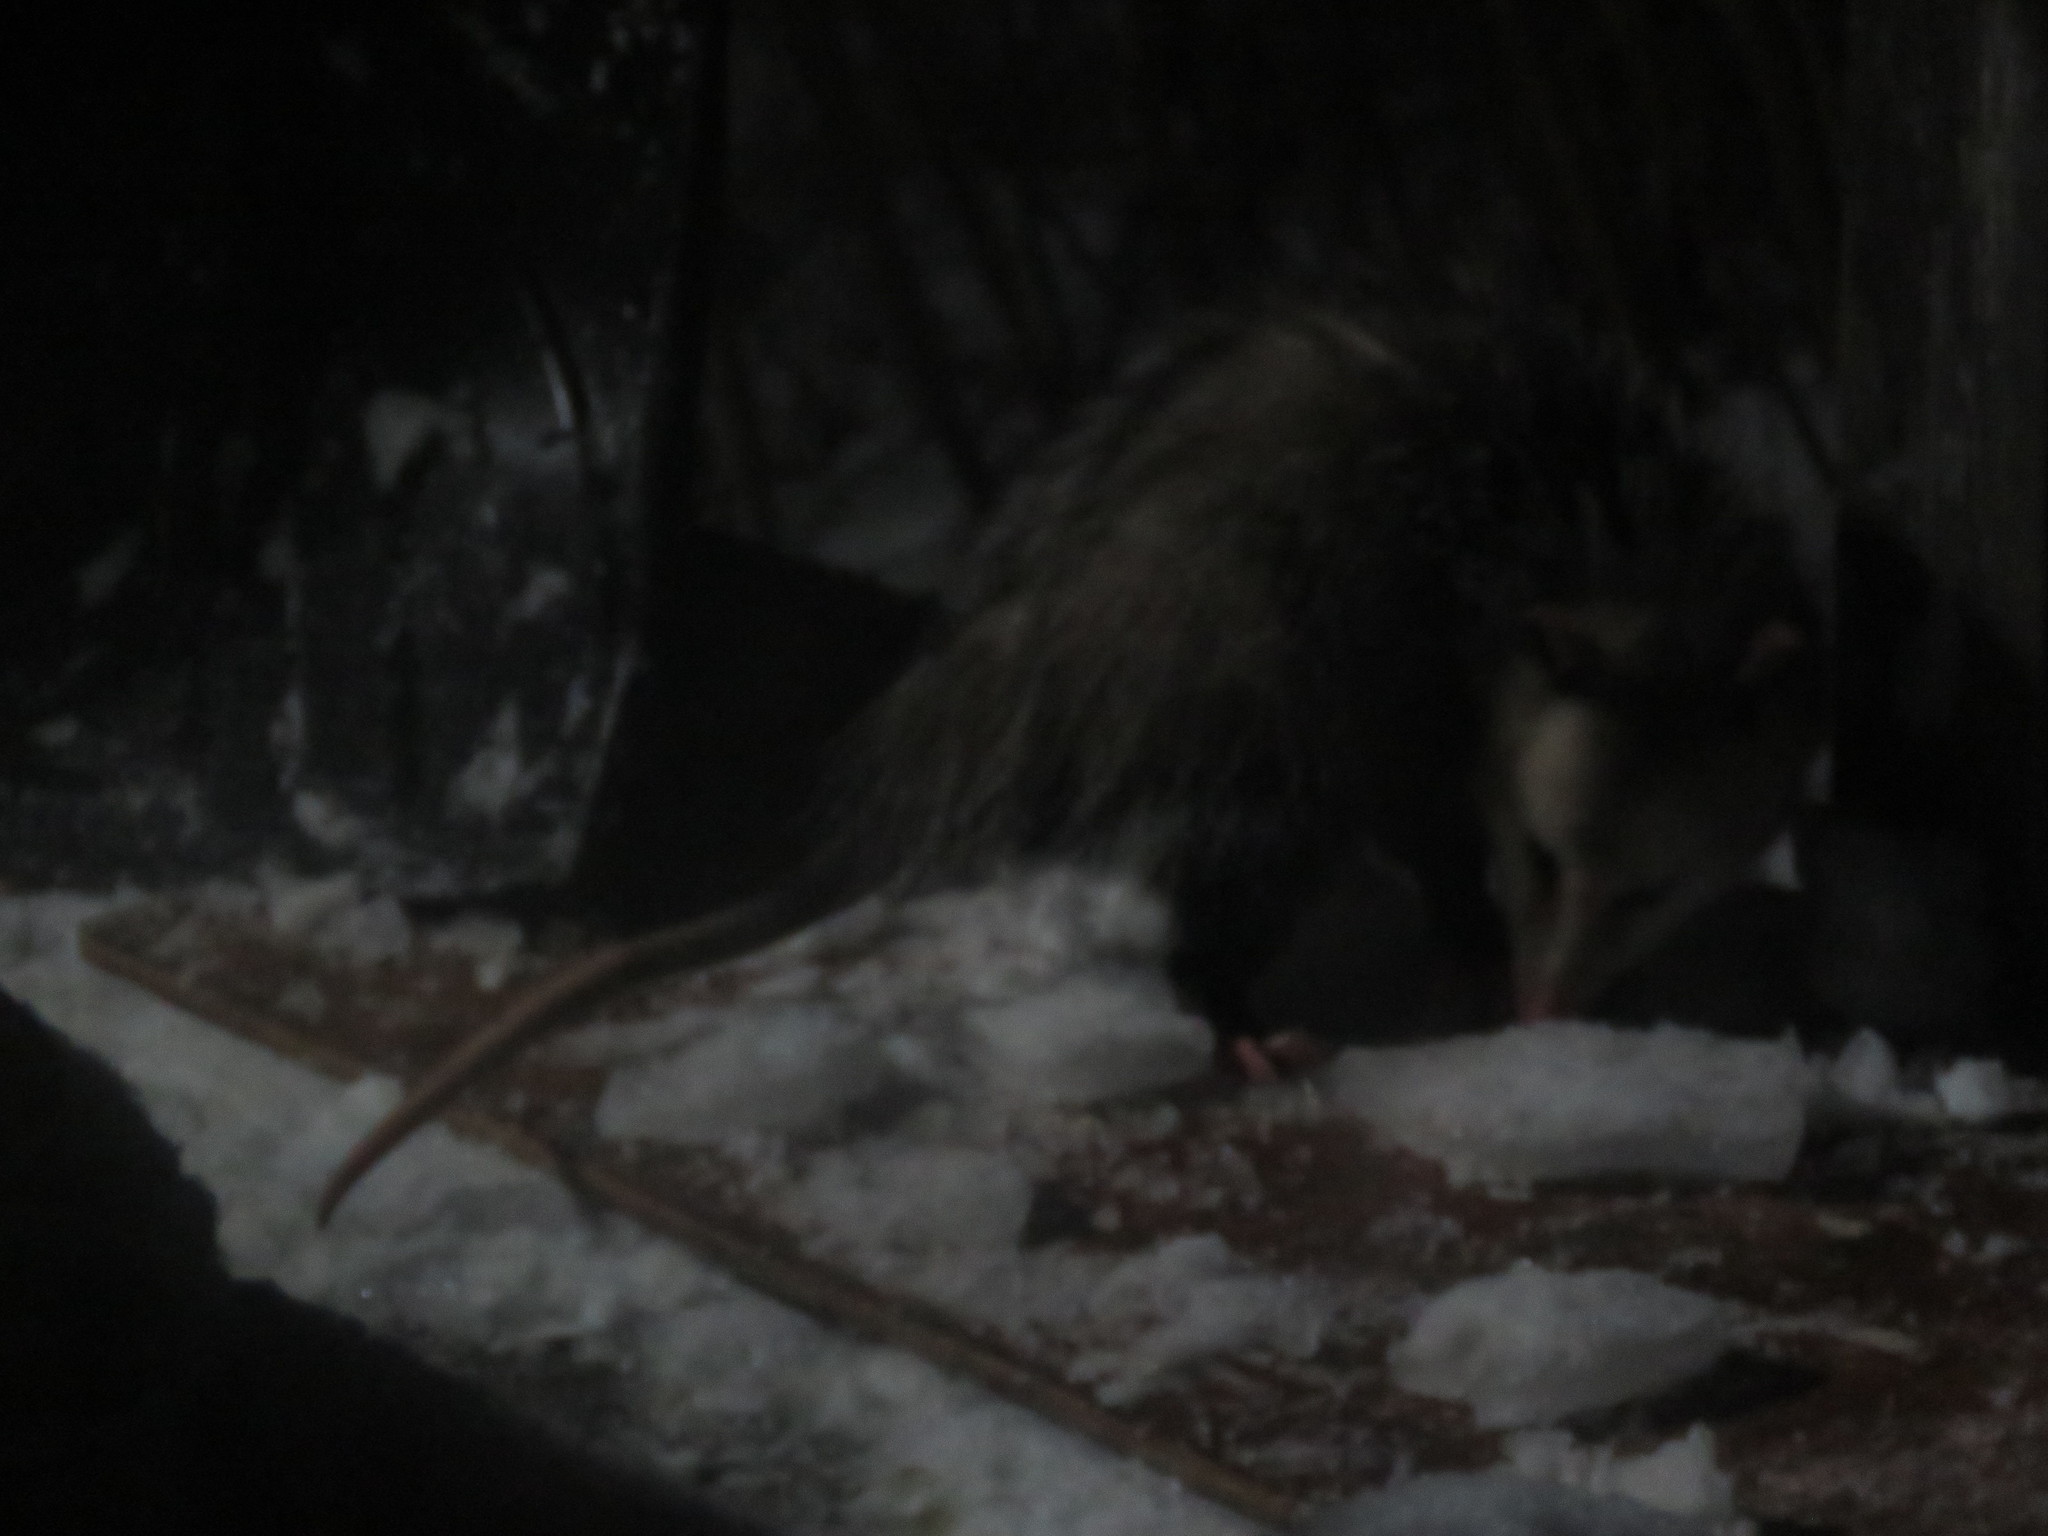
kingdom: Animalia
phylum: Chordata
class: Mammalia
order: Didelphimorphia
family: Didelphidae
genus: Didelphis
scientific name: Didelphis virginiana
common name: Virginia opossum
